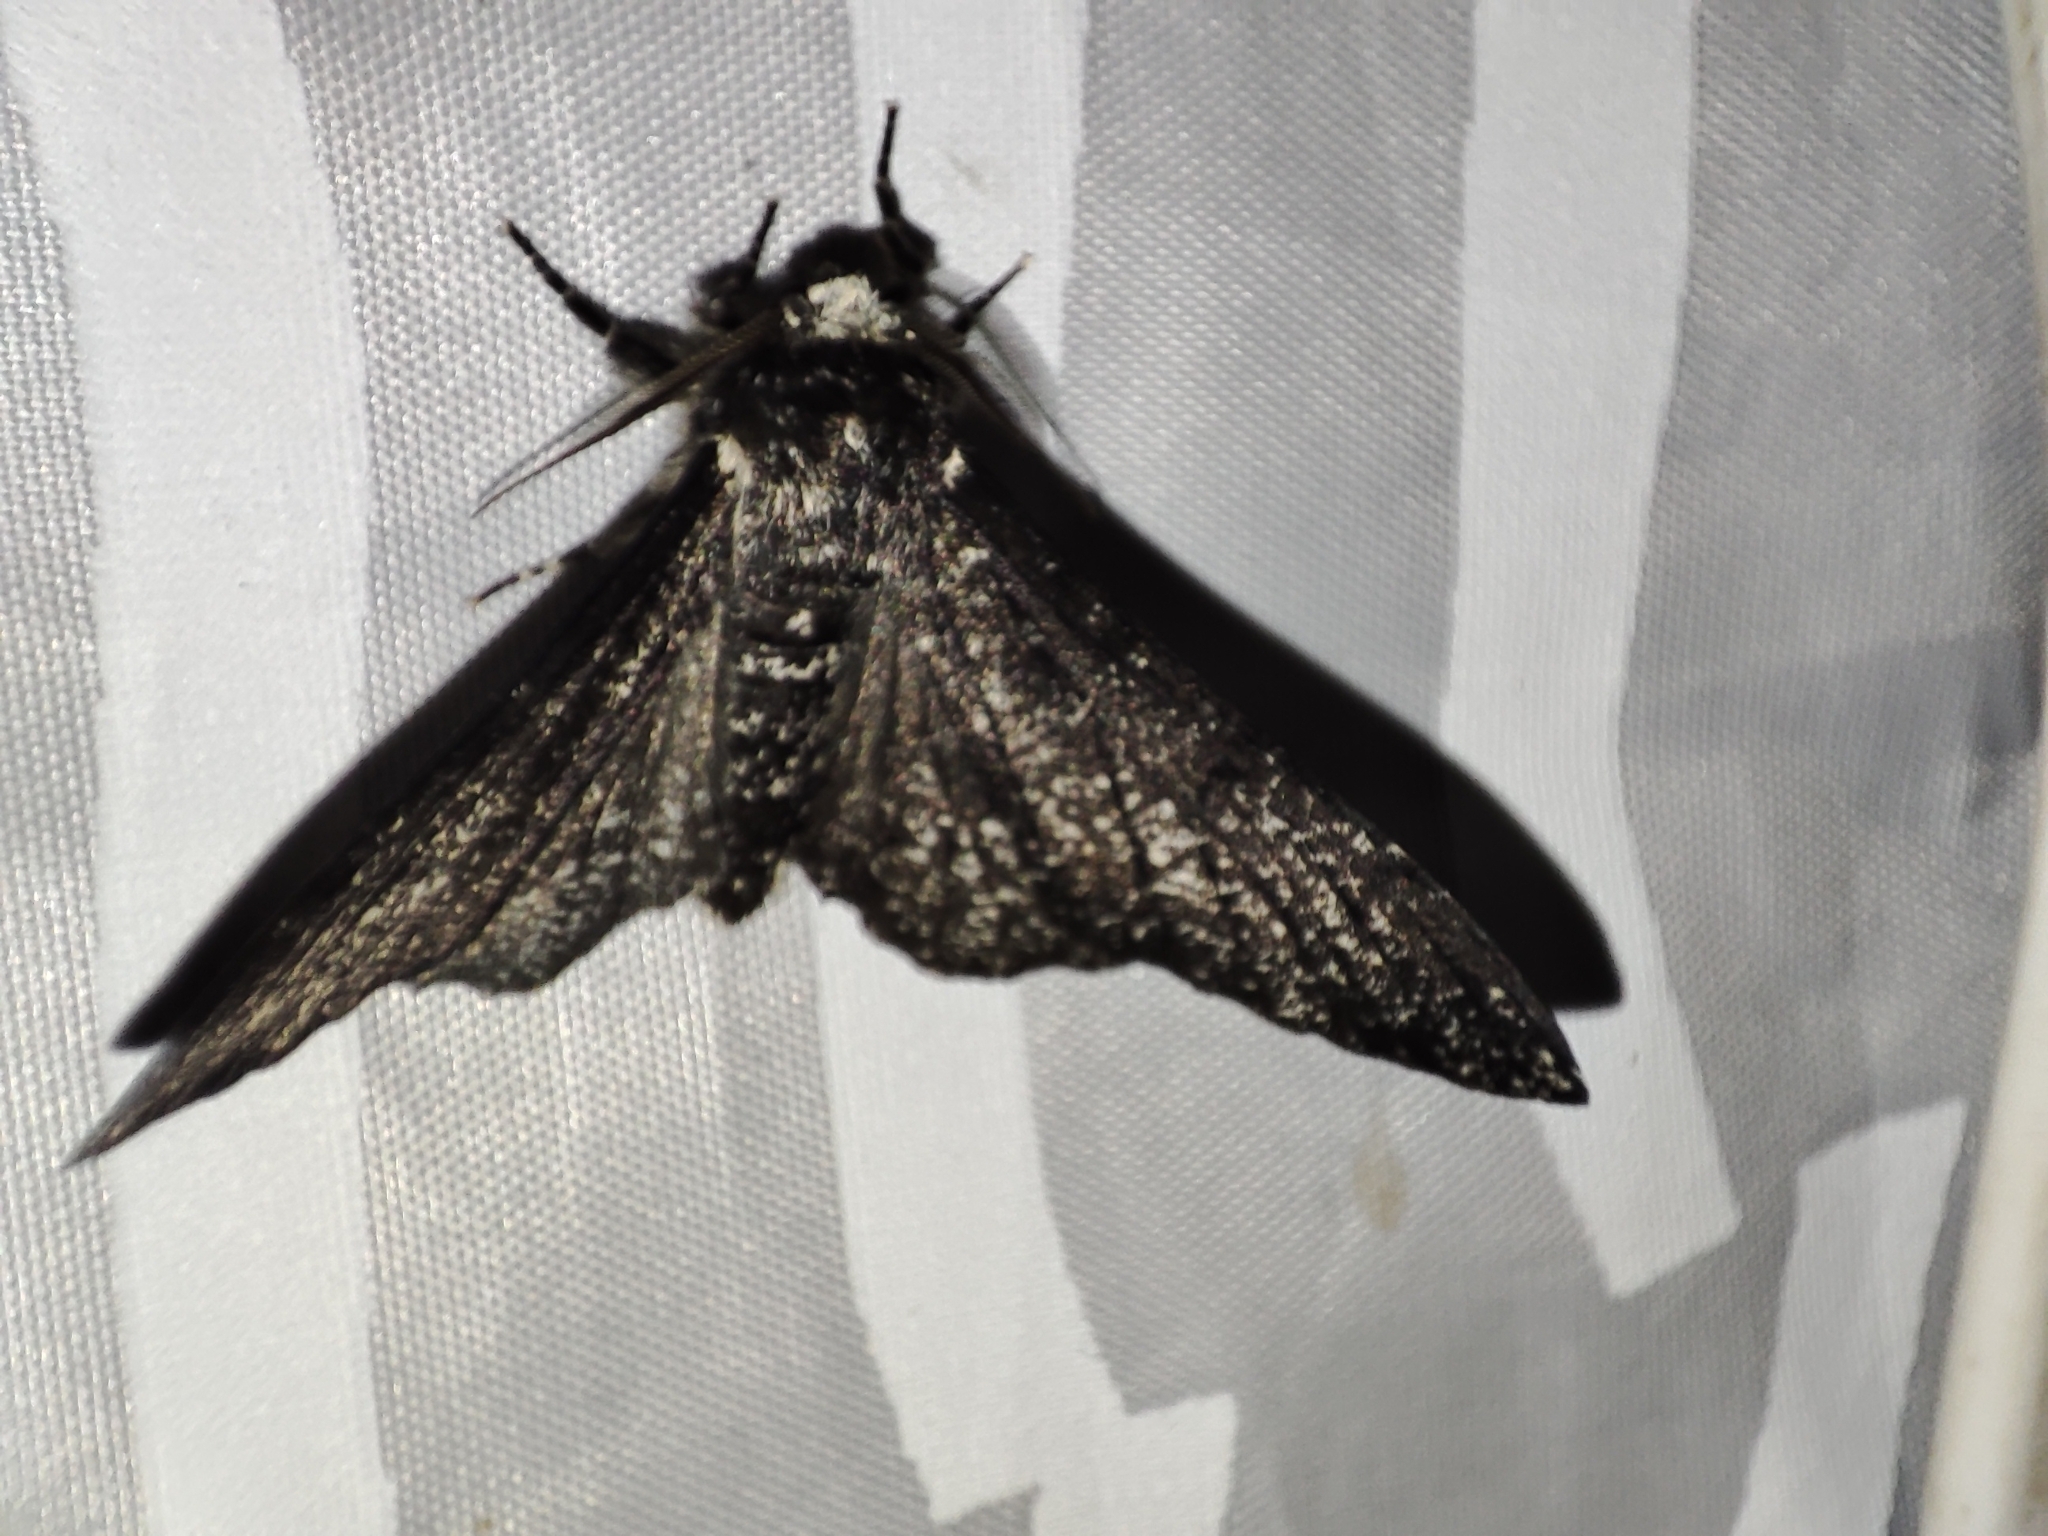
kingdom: Animalia
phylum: Arthropoda
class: Insecta
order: Lepidoptera
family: Geometridae
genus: Biston
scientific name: Biston betularia
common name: Peppered moth
